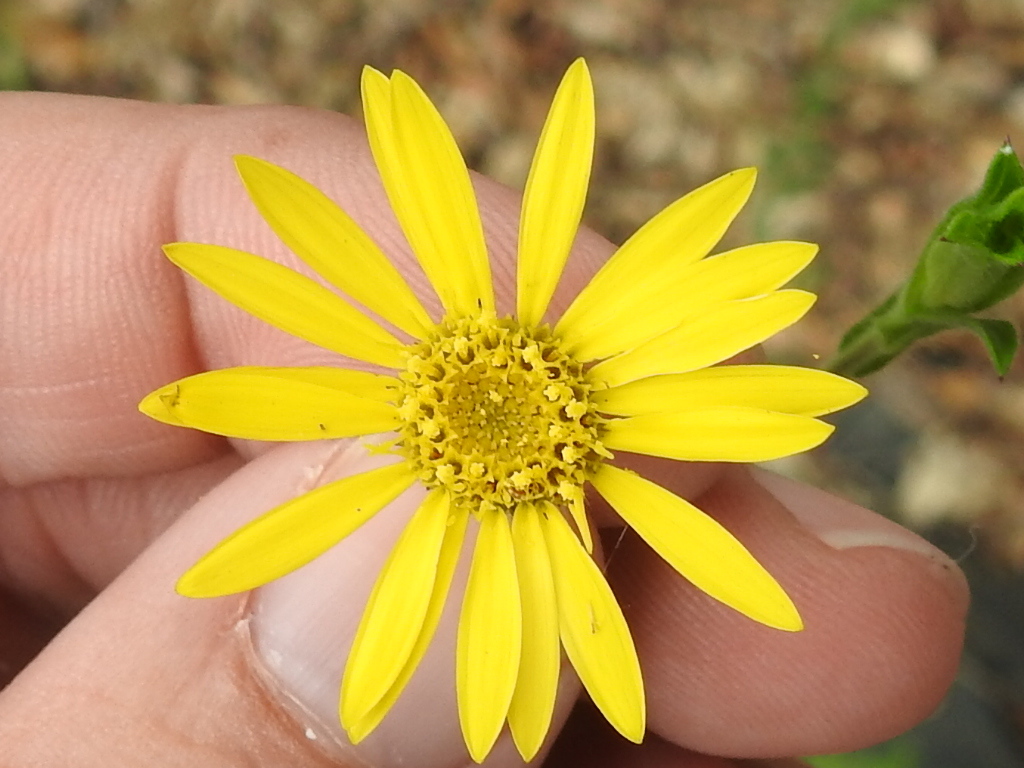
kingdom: Plantae
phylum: Tracheophyta
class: Magnoliopsida
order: Asterales
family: Asteraceae
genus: Bradburia
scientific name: Bradburia pilosa
